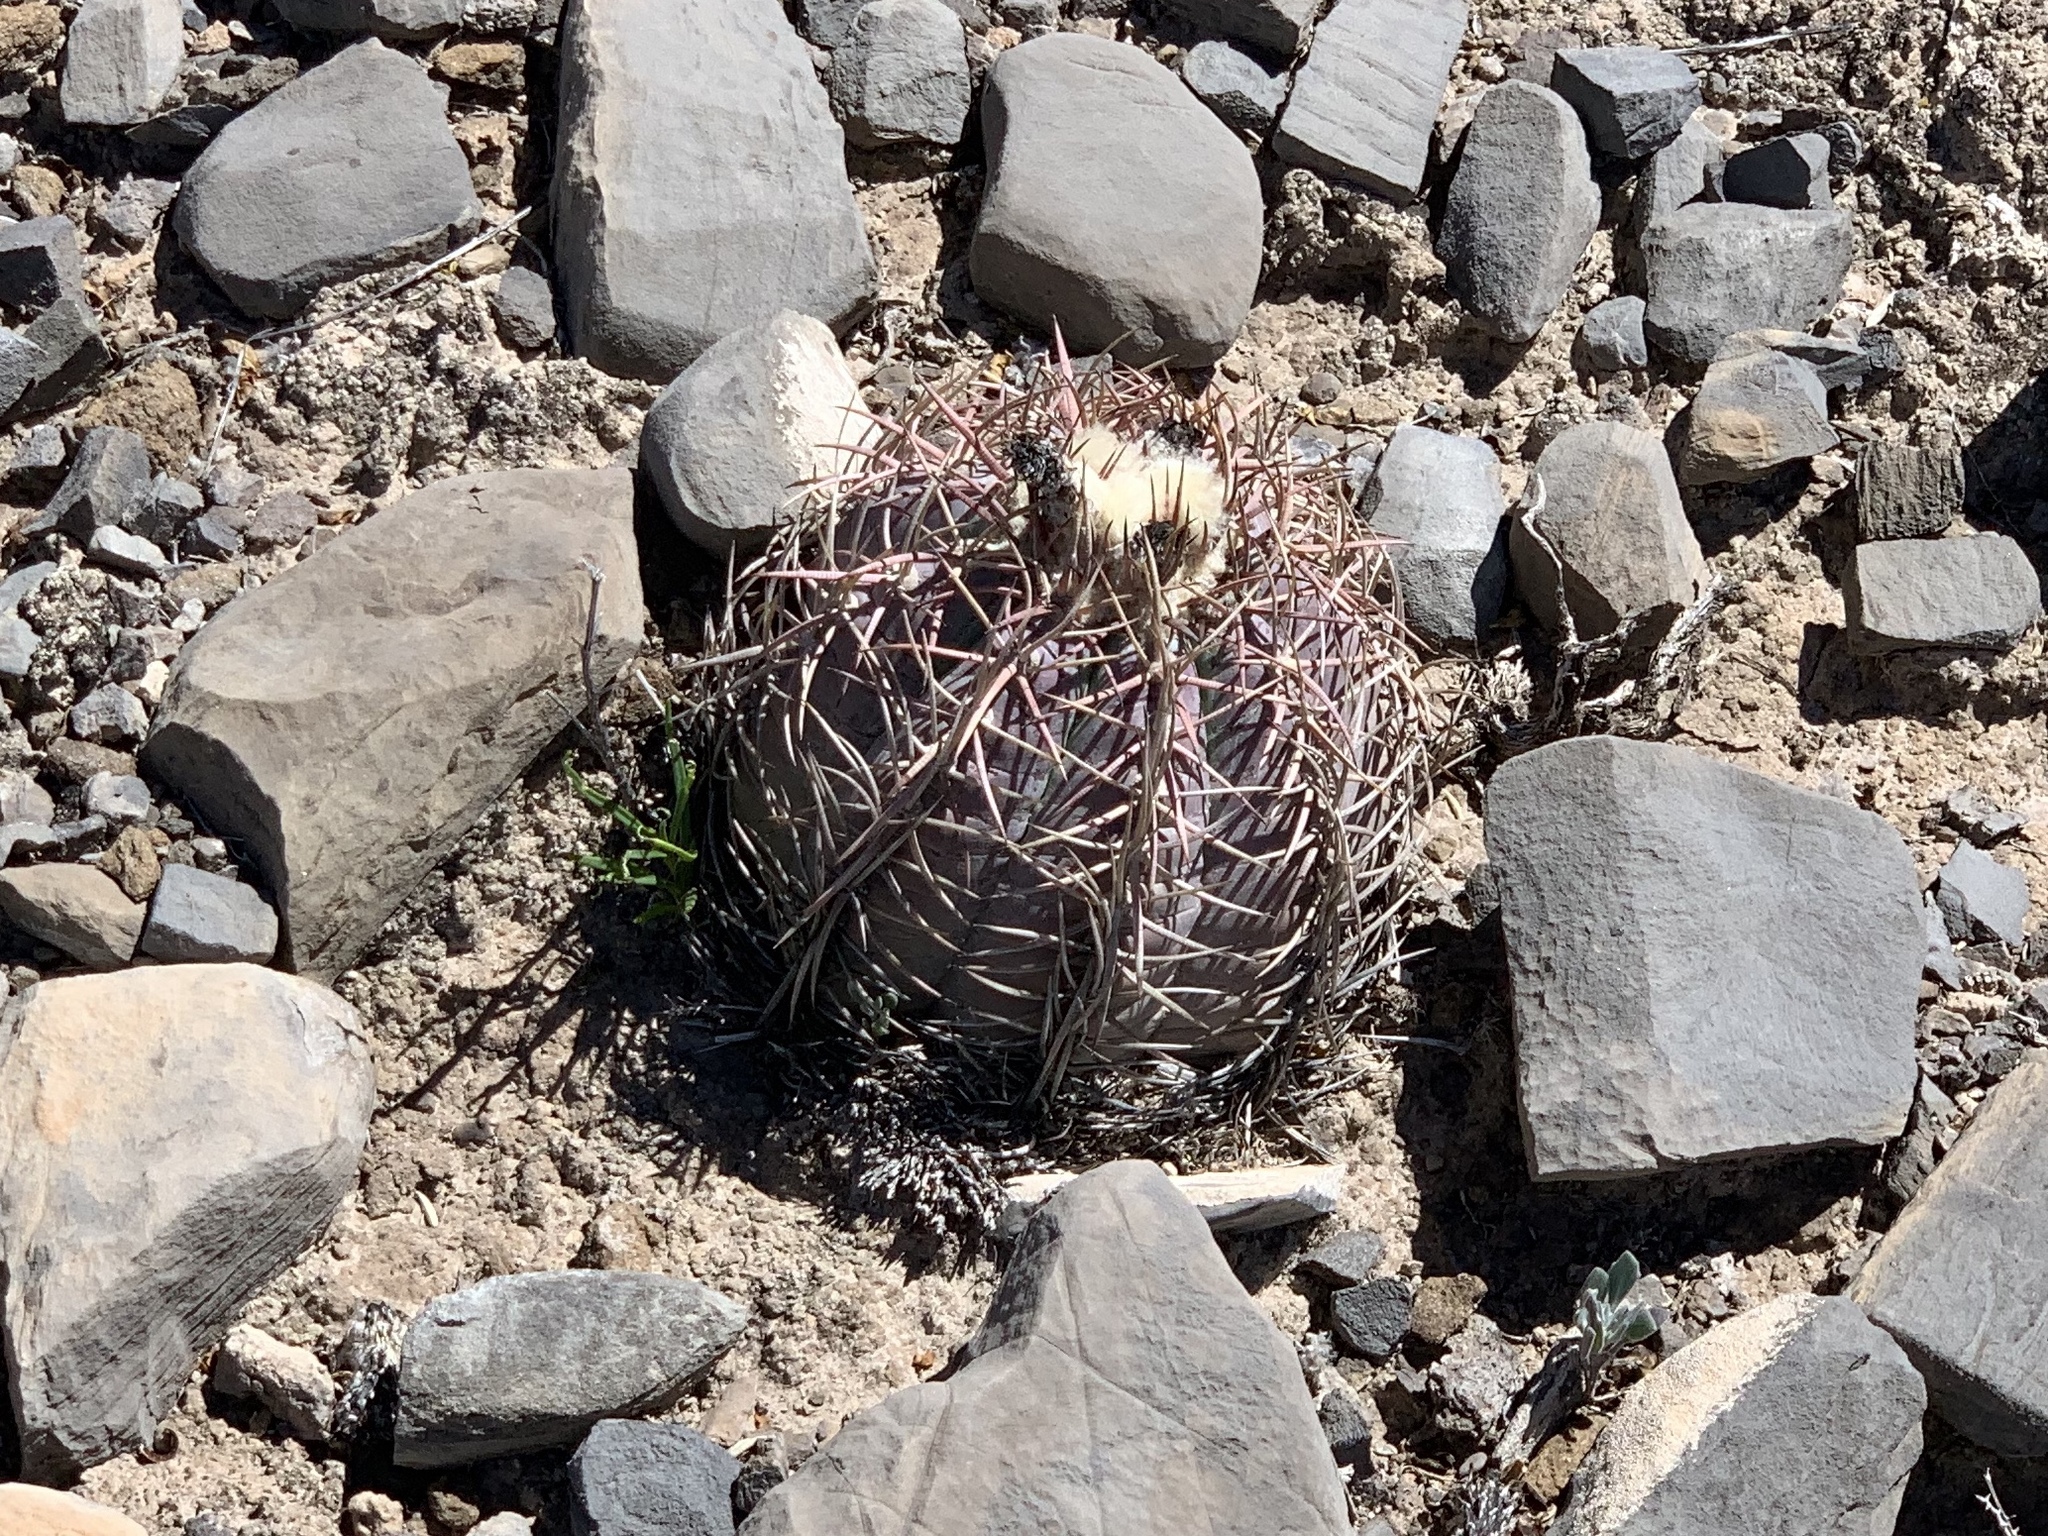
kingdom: Plantae
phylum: Tracheophyta
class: Magnoliopsida
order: Caryophyllales
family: Cactaceae
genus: Echinocactus
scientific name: Echinocactus horizonthalonius
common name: Devilshead
